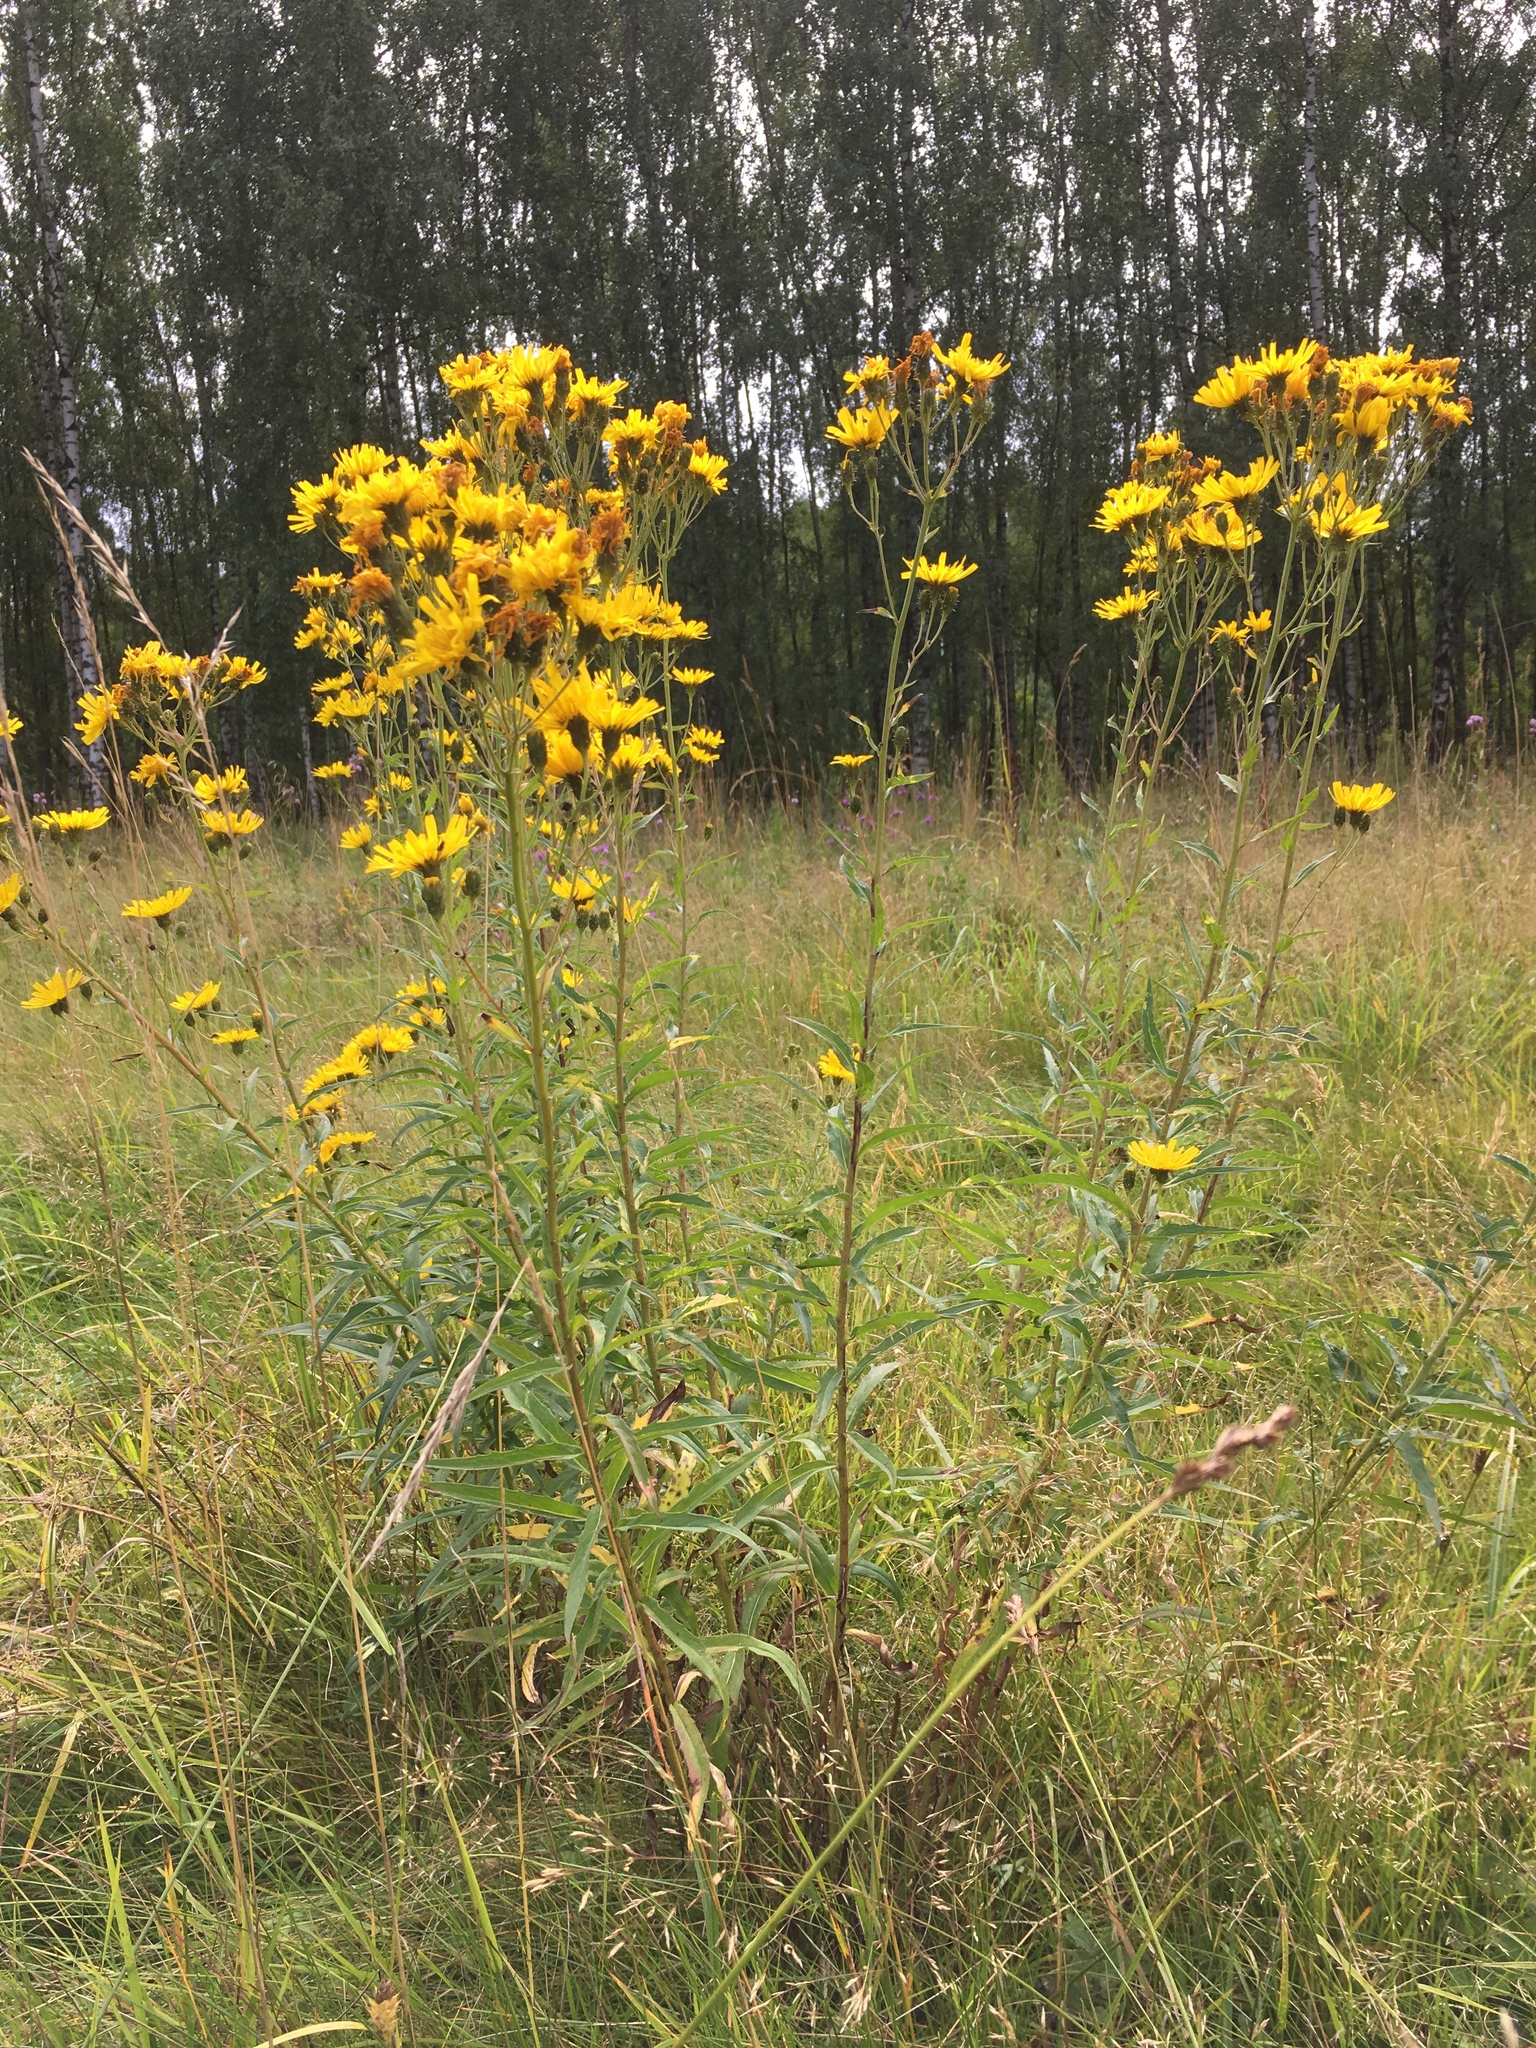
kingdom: Plantae
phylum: Tracheophyta
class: Magnoliopsida
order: Asterales
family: Asteraceae
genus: Hieracium
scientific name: Hieracium umbellatum
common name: Northern hawkweed
